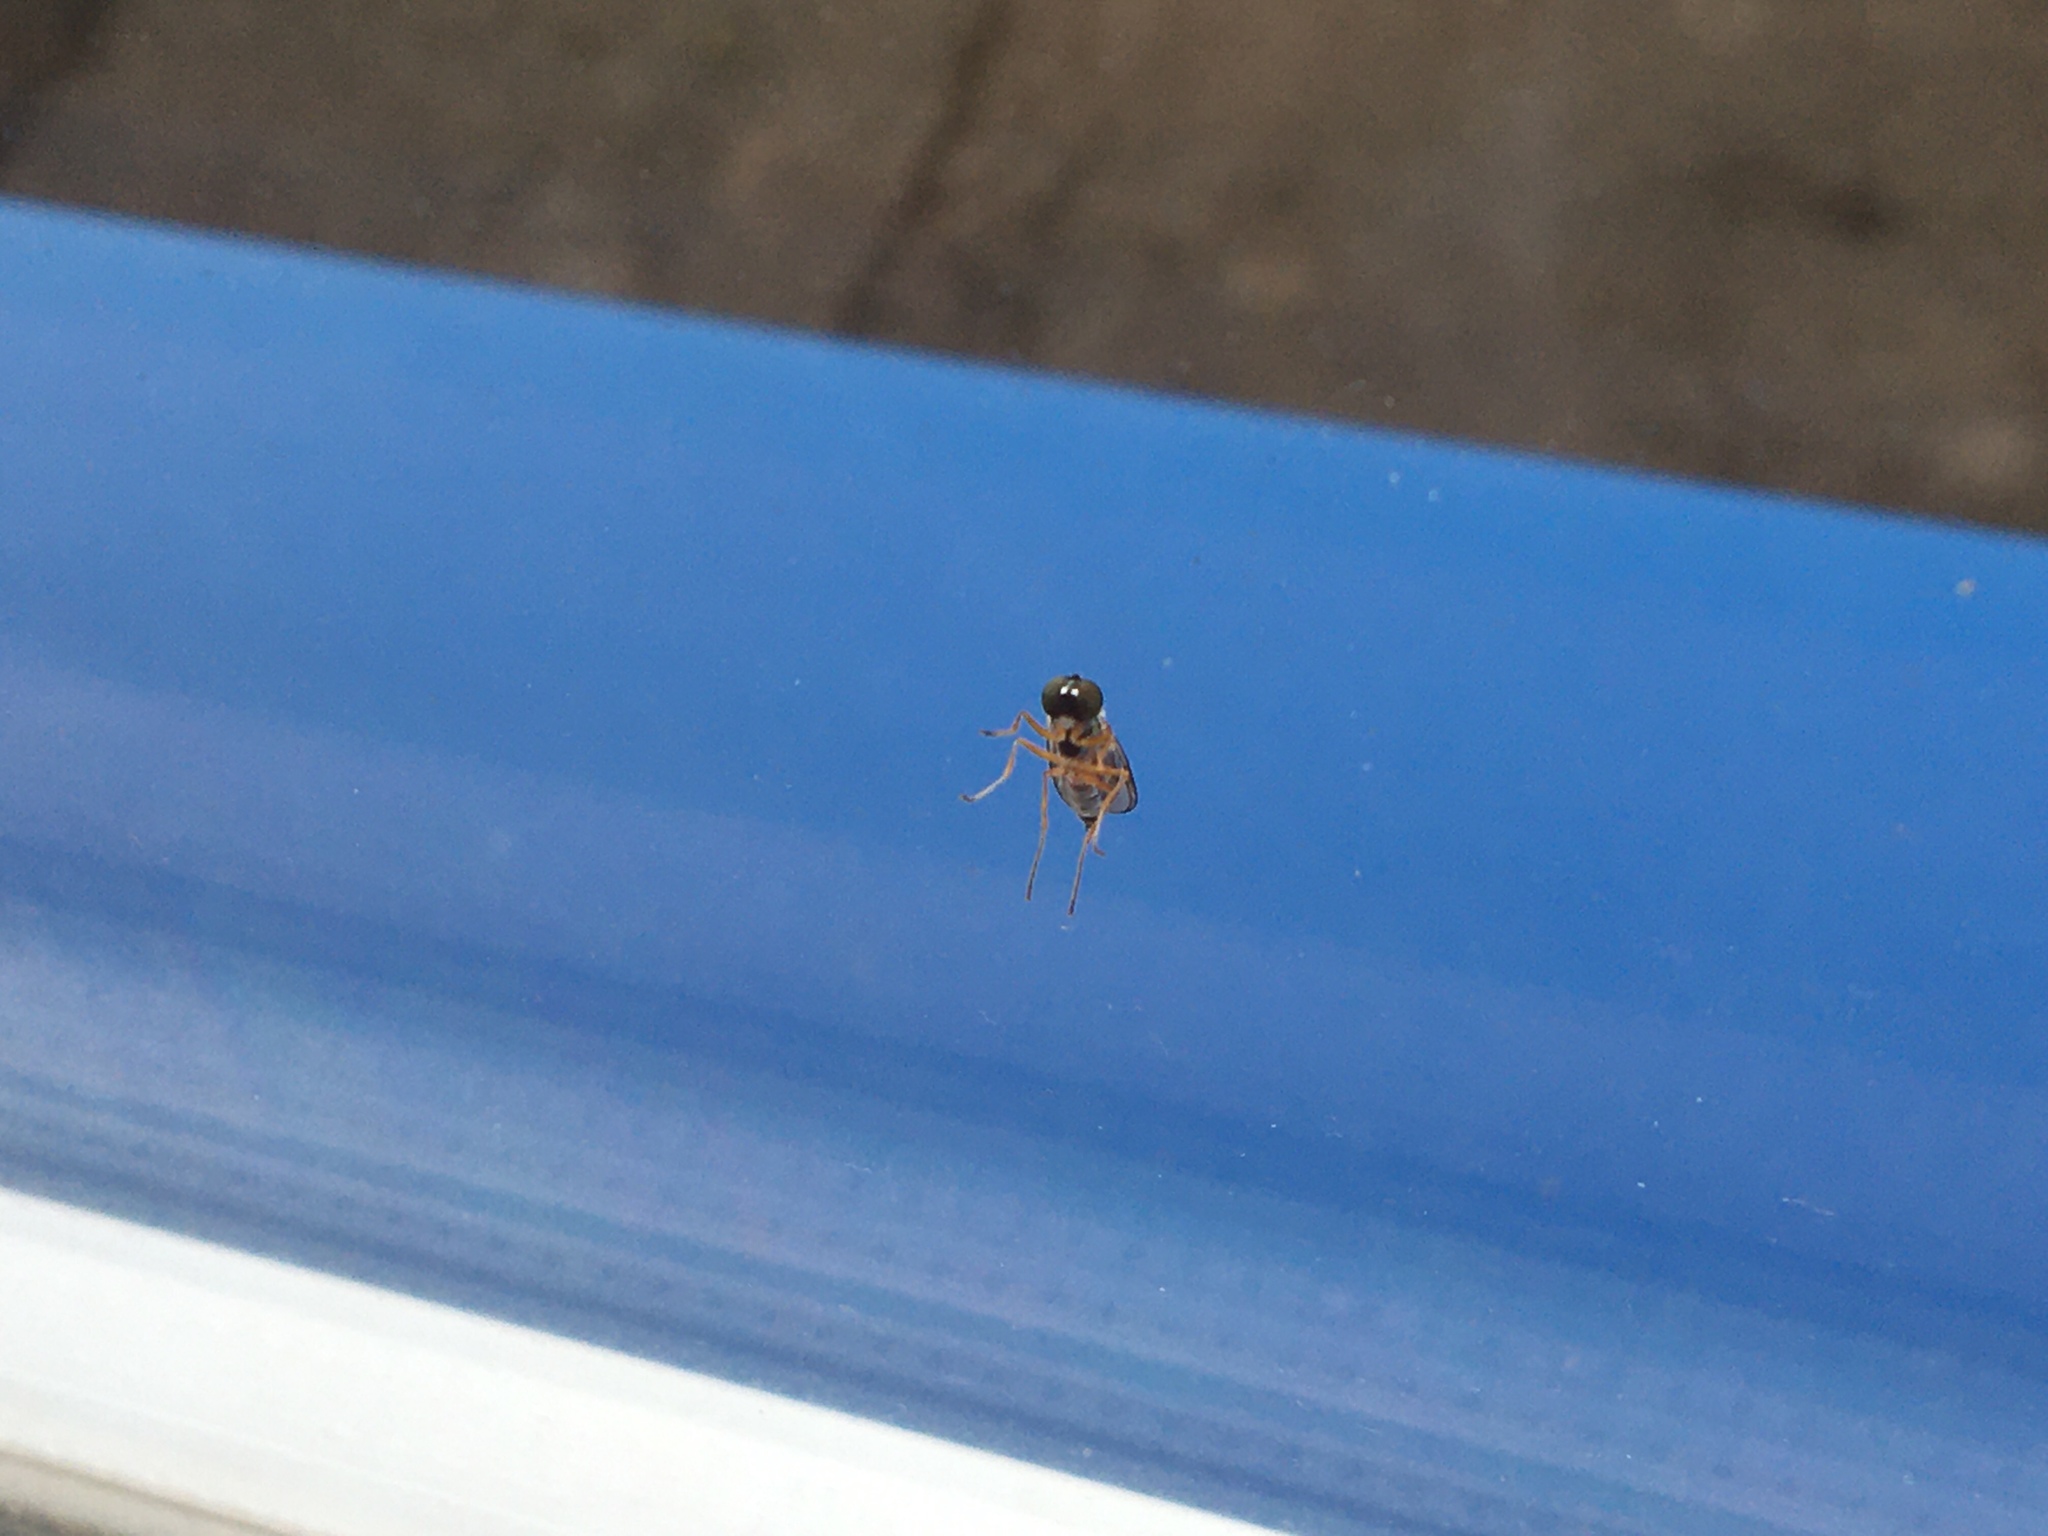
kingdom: Animalia
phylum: Arthropoda
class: Insecta
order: Diptera
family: Stratiomyidae
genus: Sargus
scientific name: Sargus bipunctatus
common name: Twin-spot centurion
